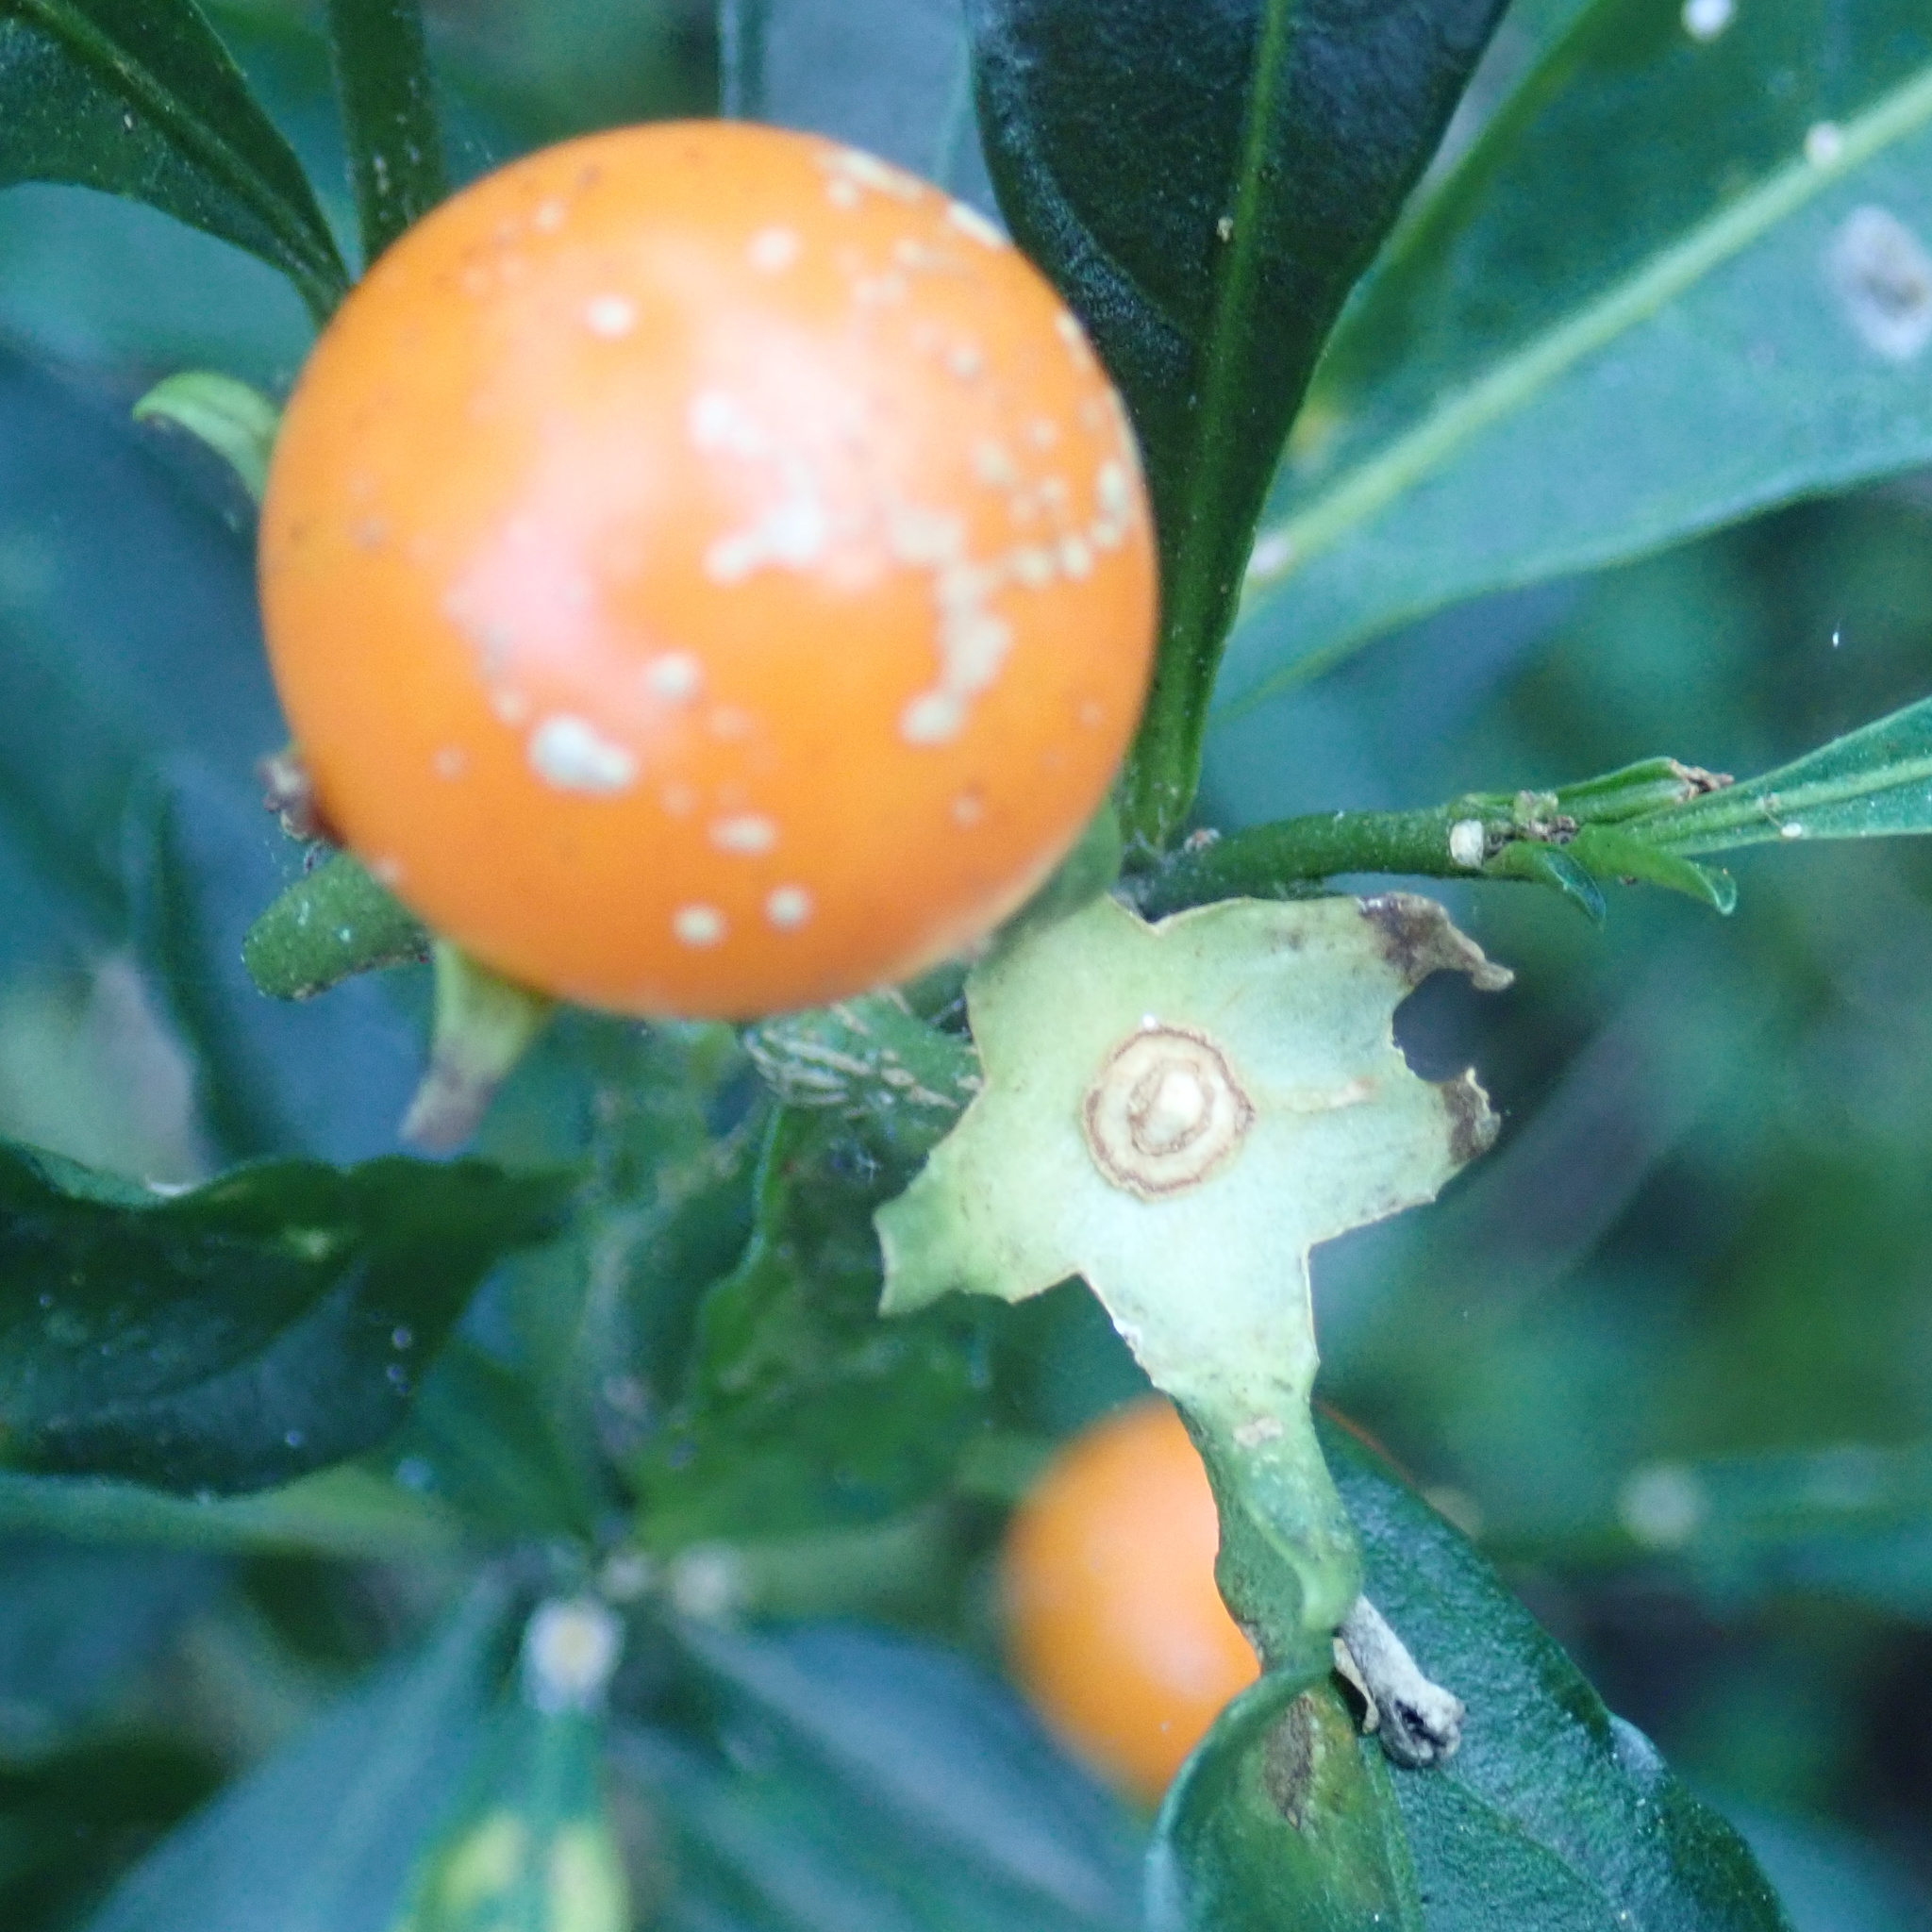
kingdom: Plantae
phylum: Tracheophyta
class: Magnoliopsida
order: Solanales
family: Solanaceae
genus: Solanum
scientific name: Solanum pseudocapsicum
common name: Jerusalem cherry
